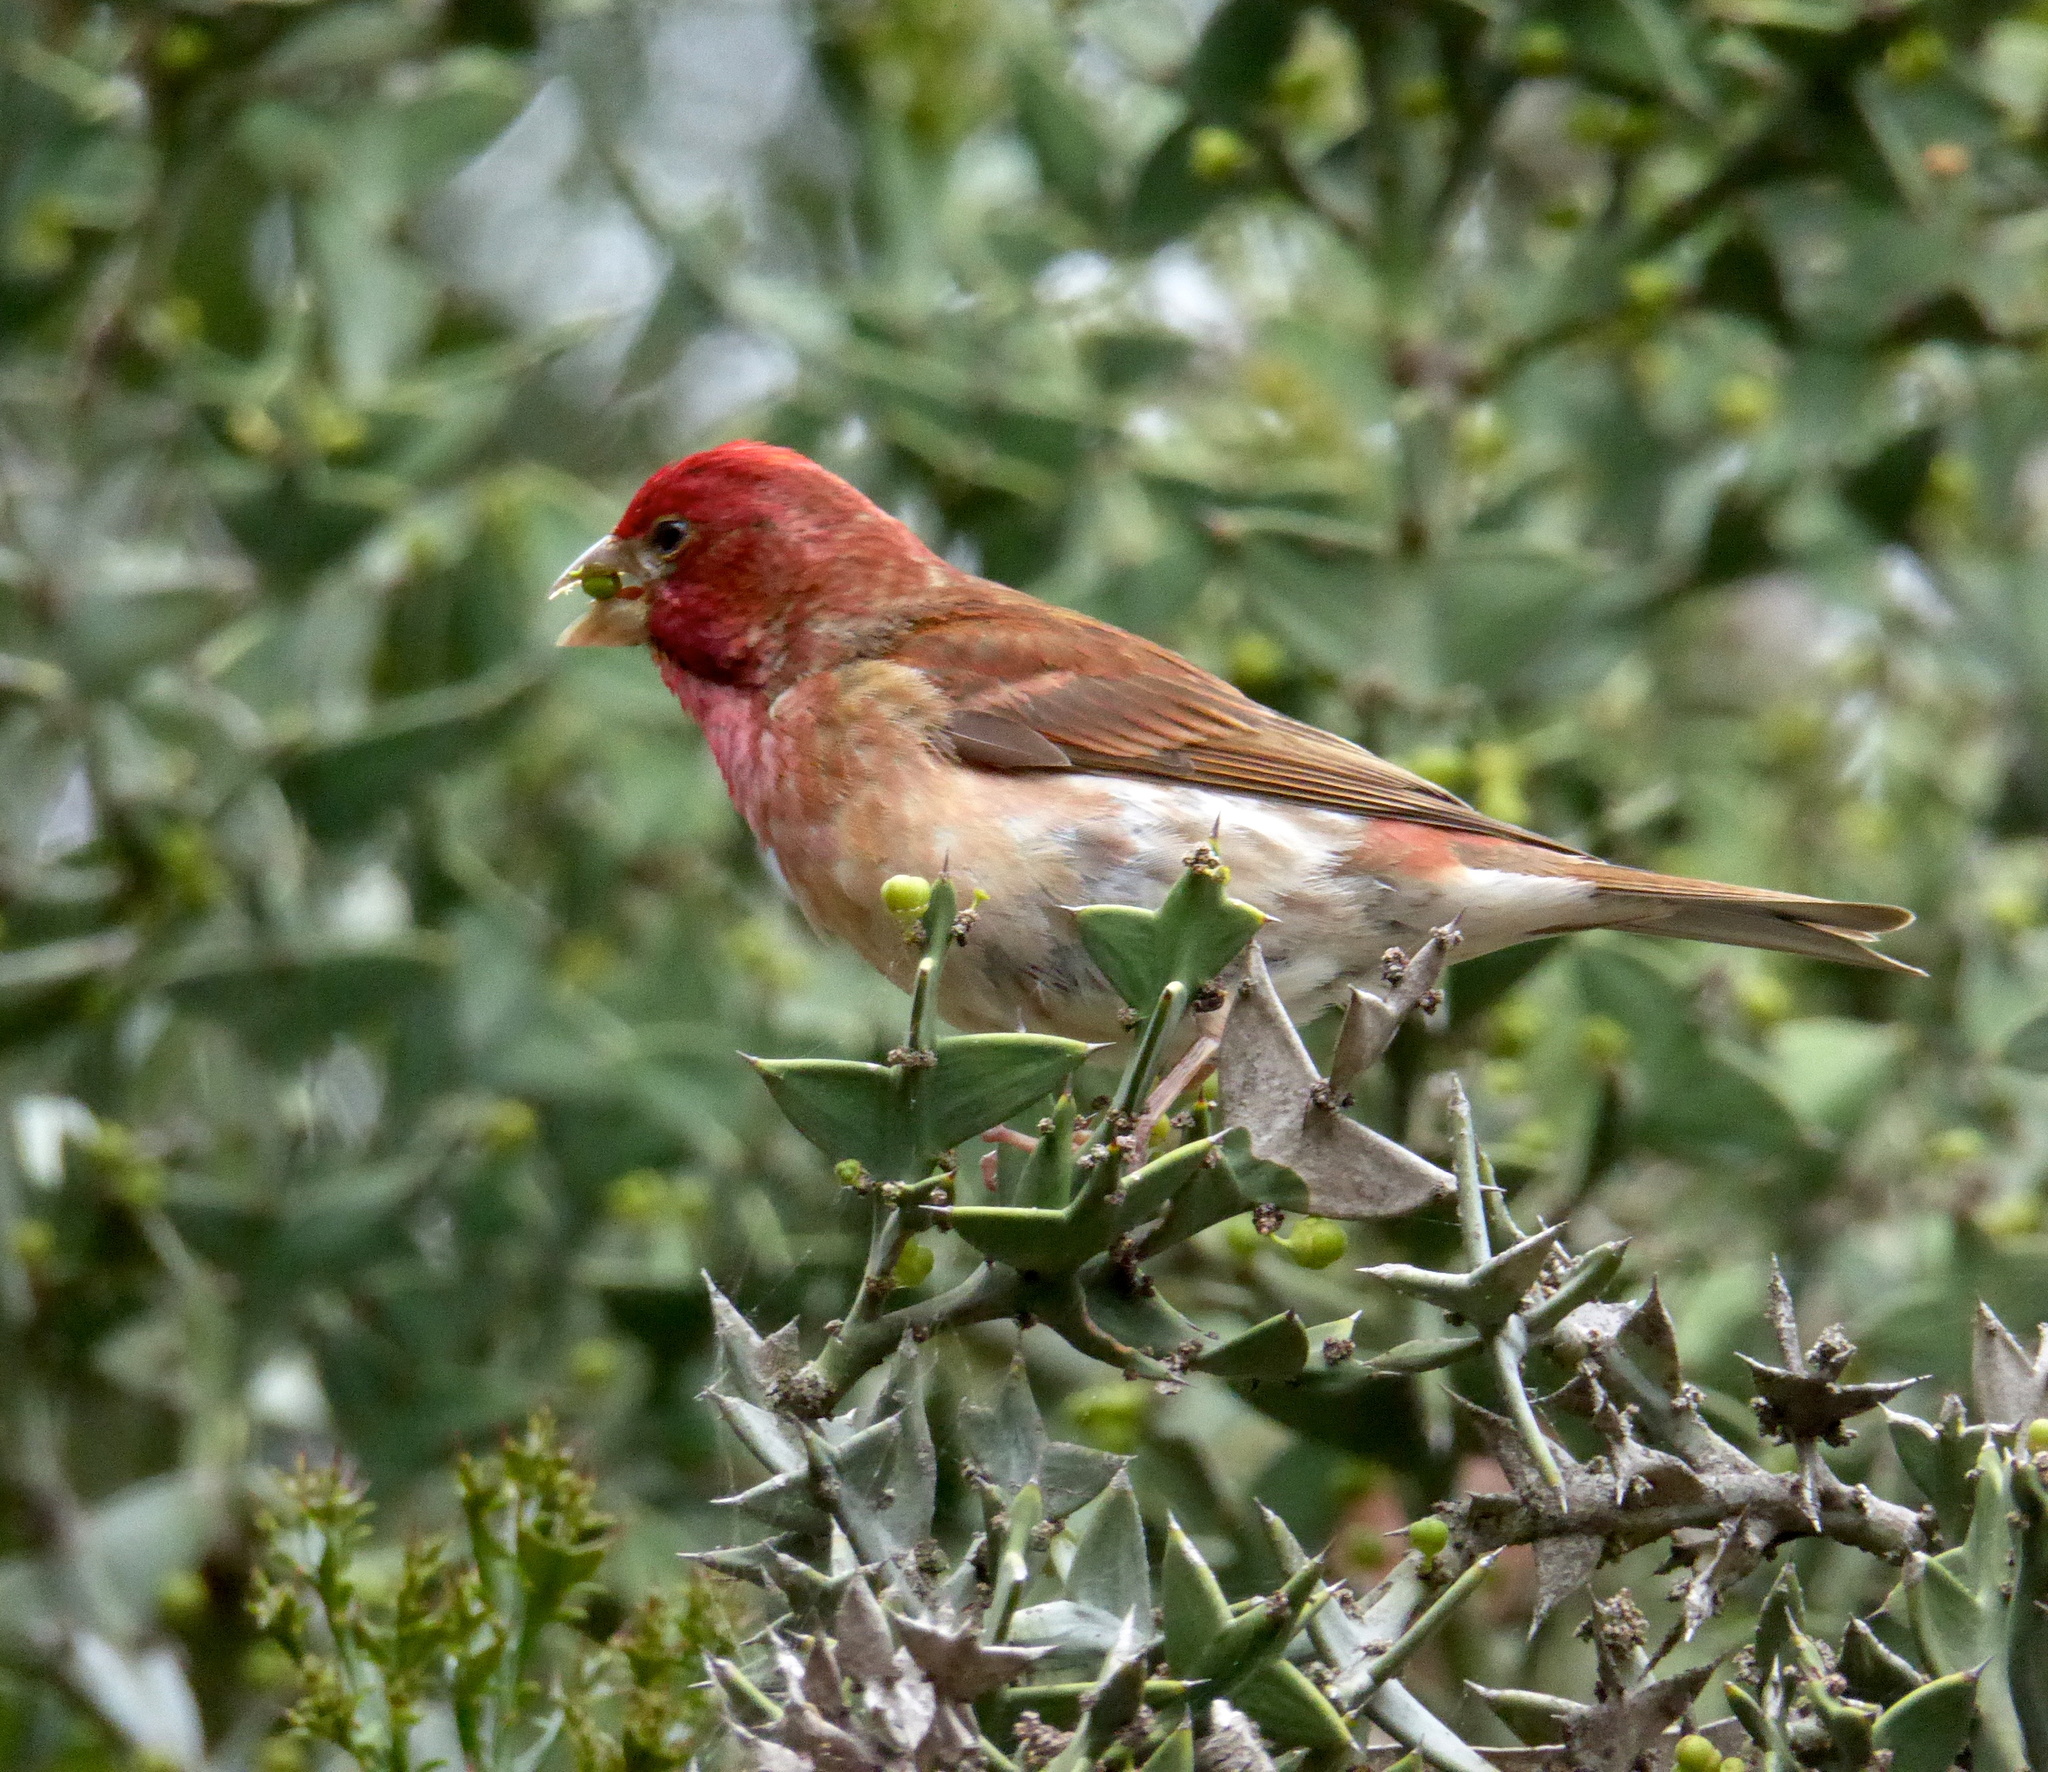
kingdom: Animalia
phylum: Chordata
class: Aves
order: Passeriformes
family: Fringillidae
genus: Haemorhous
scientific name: Haemorhous purpureus
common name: Purple finch
